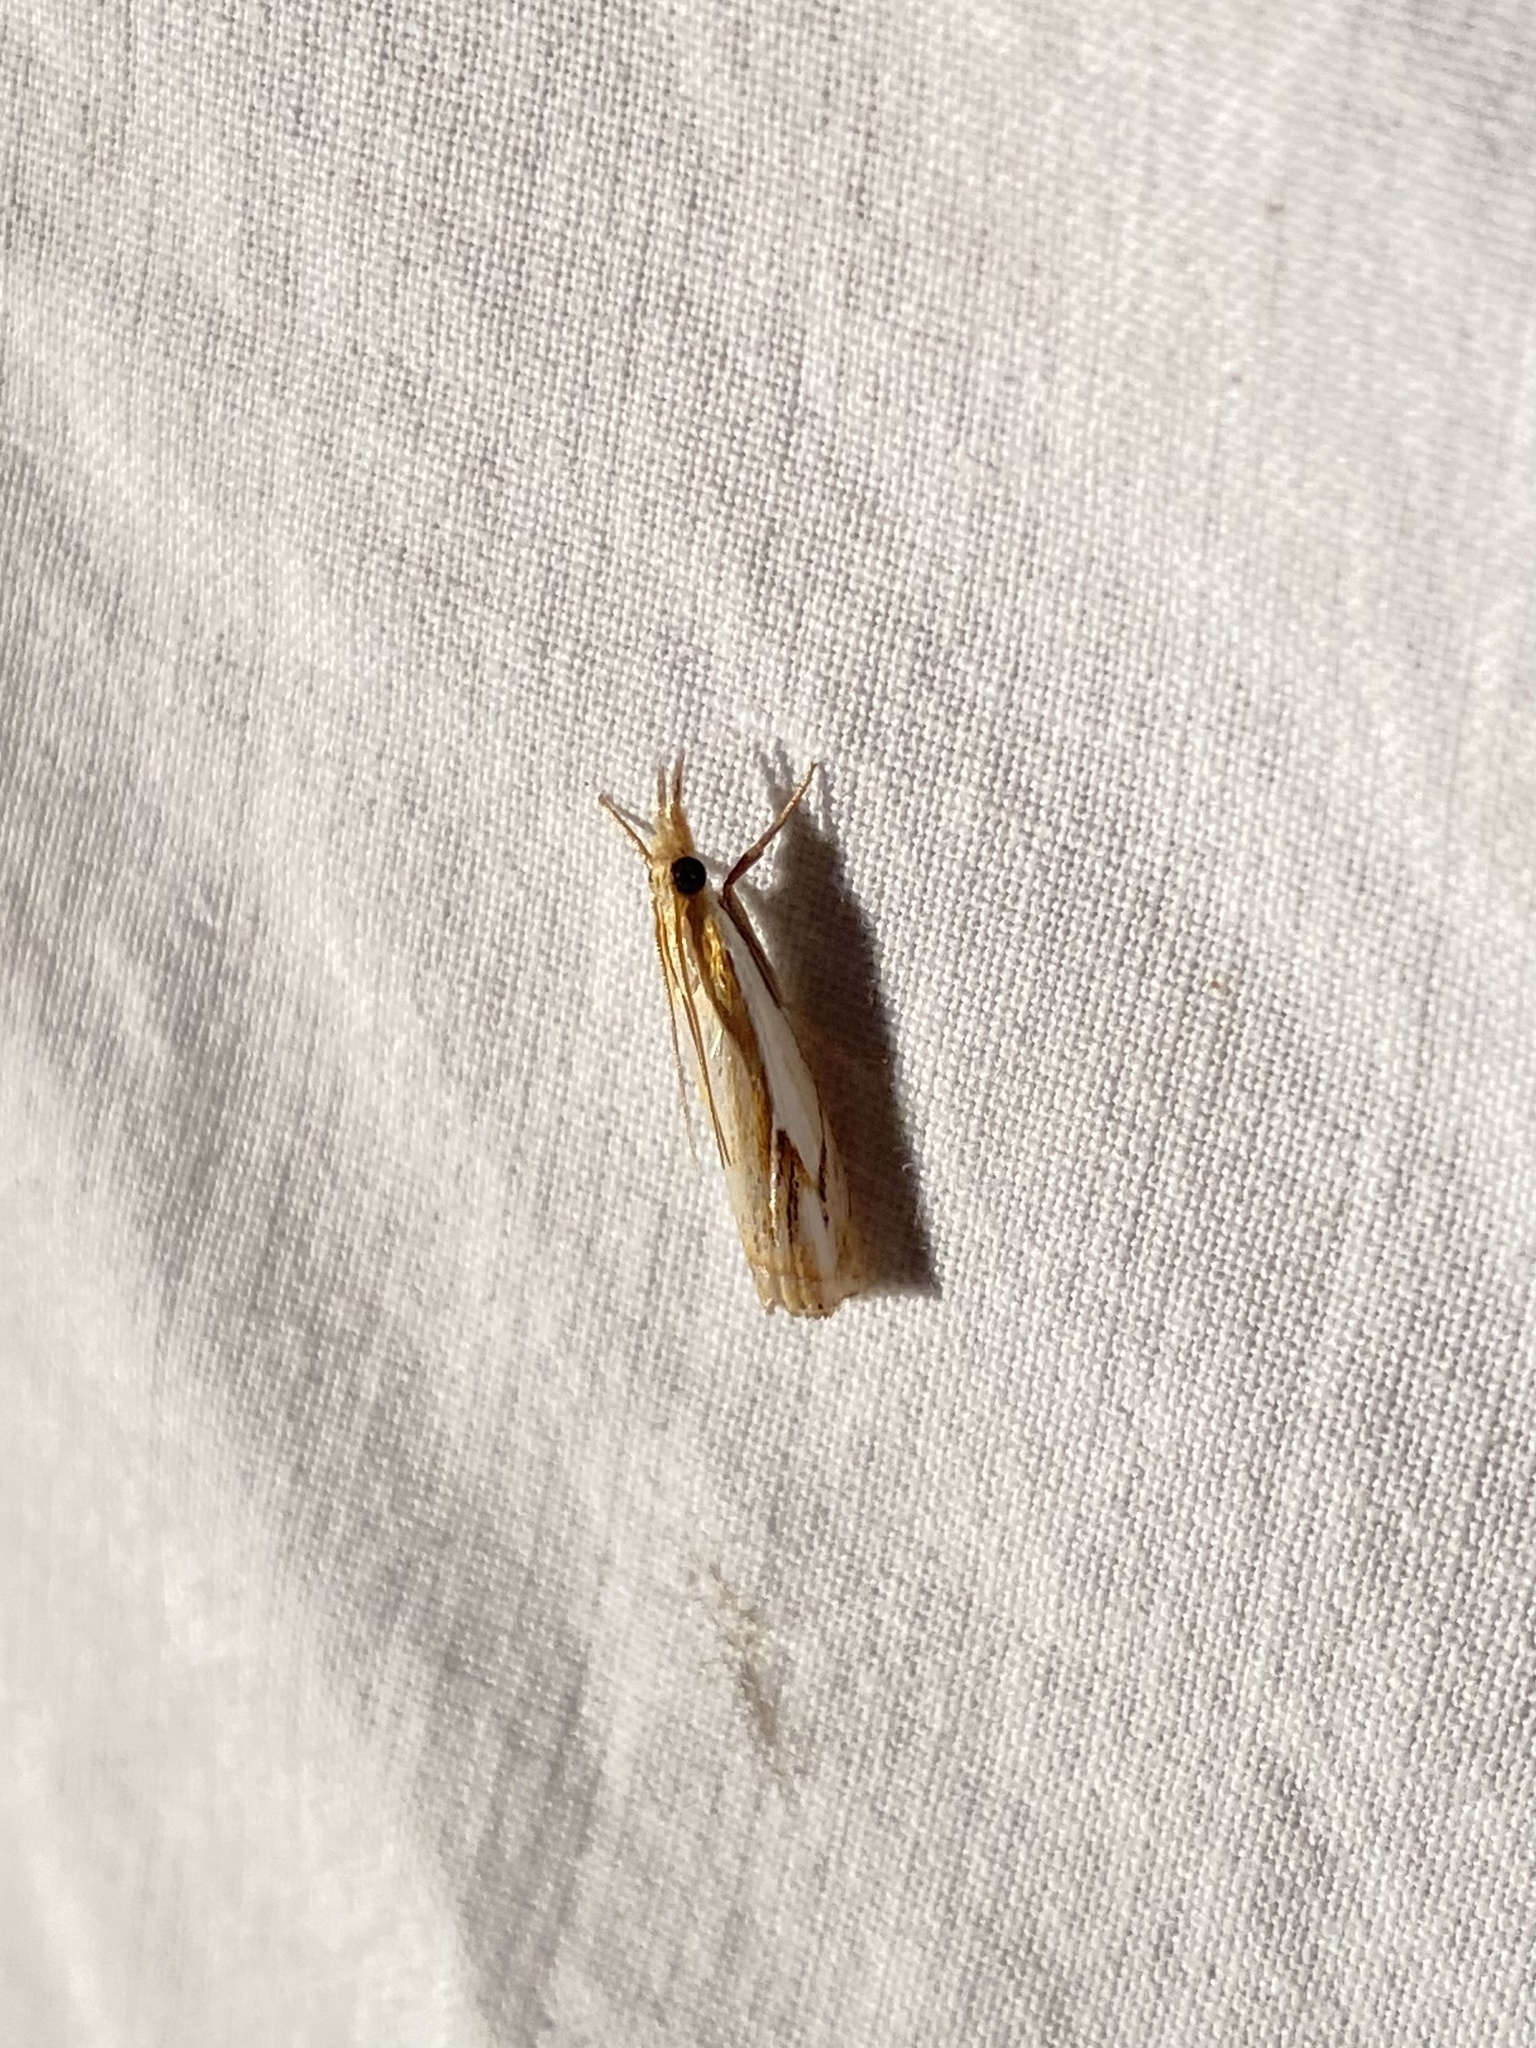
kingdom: Animalia
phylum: Arthropoda
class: Insecta
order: Lepidoptera
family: Crambidae
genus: Crambus
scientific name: Crambus agitatellus
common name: Double-banded grass-veneer
